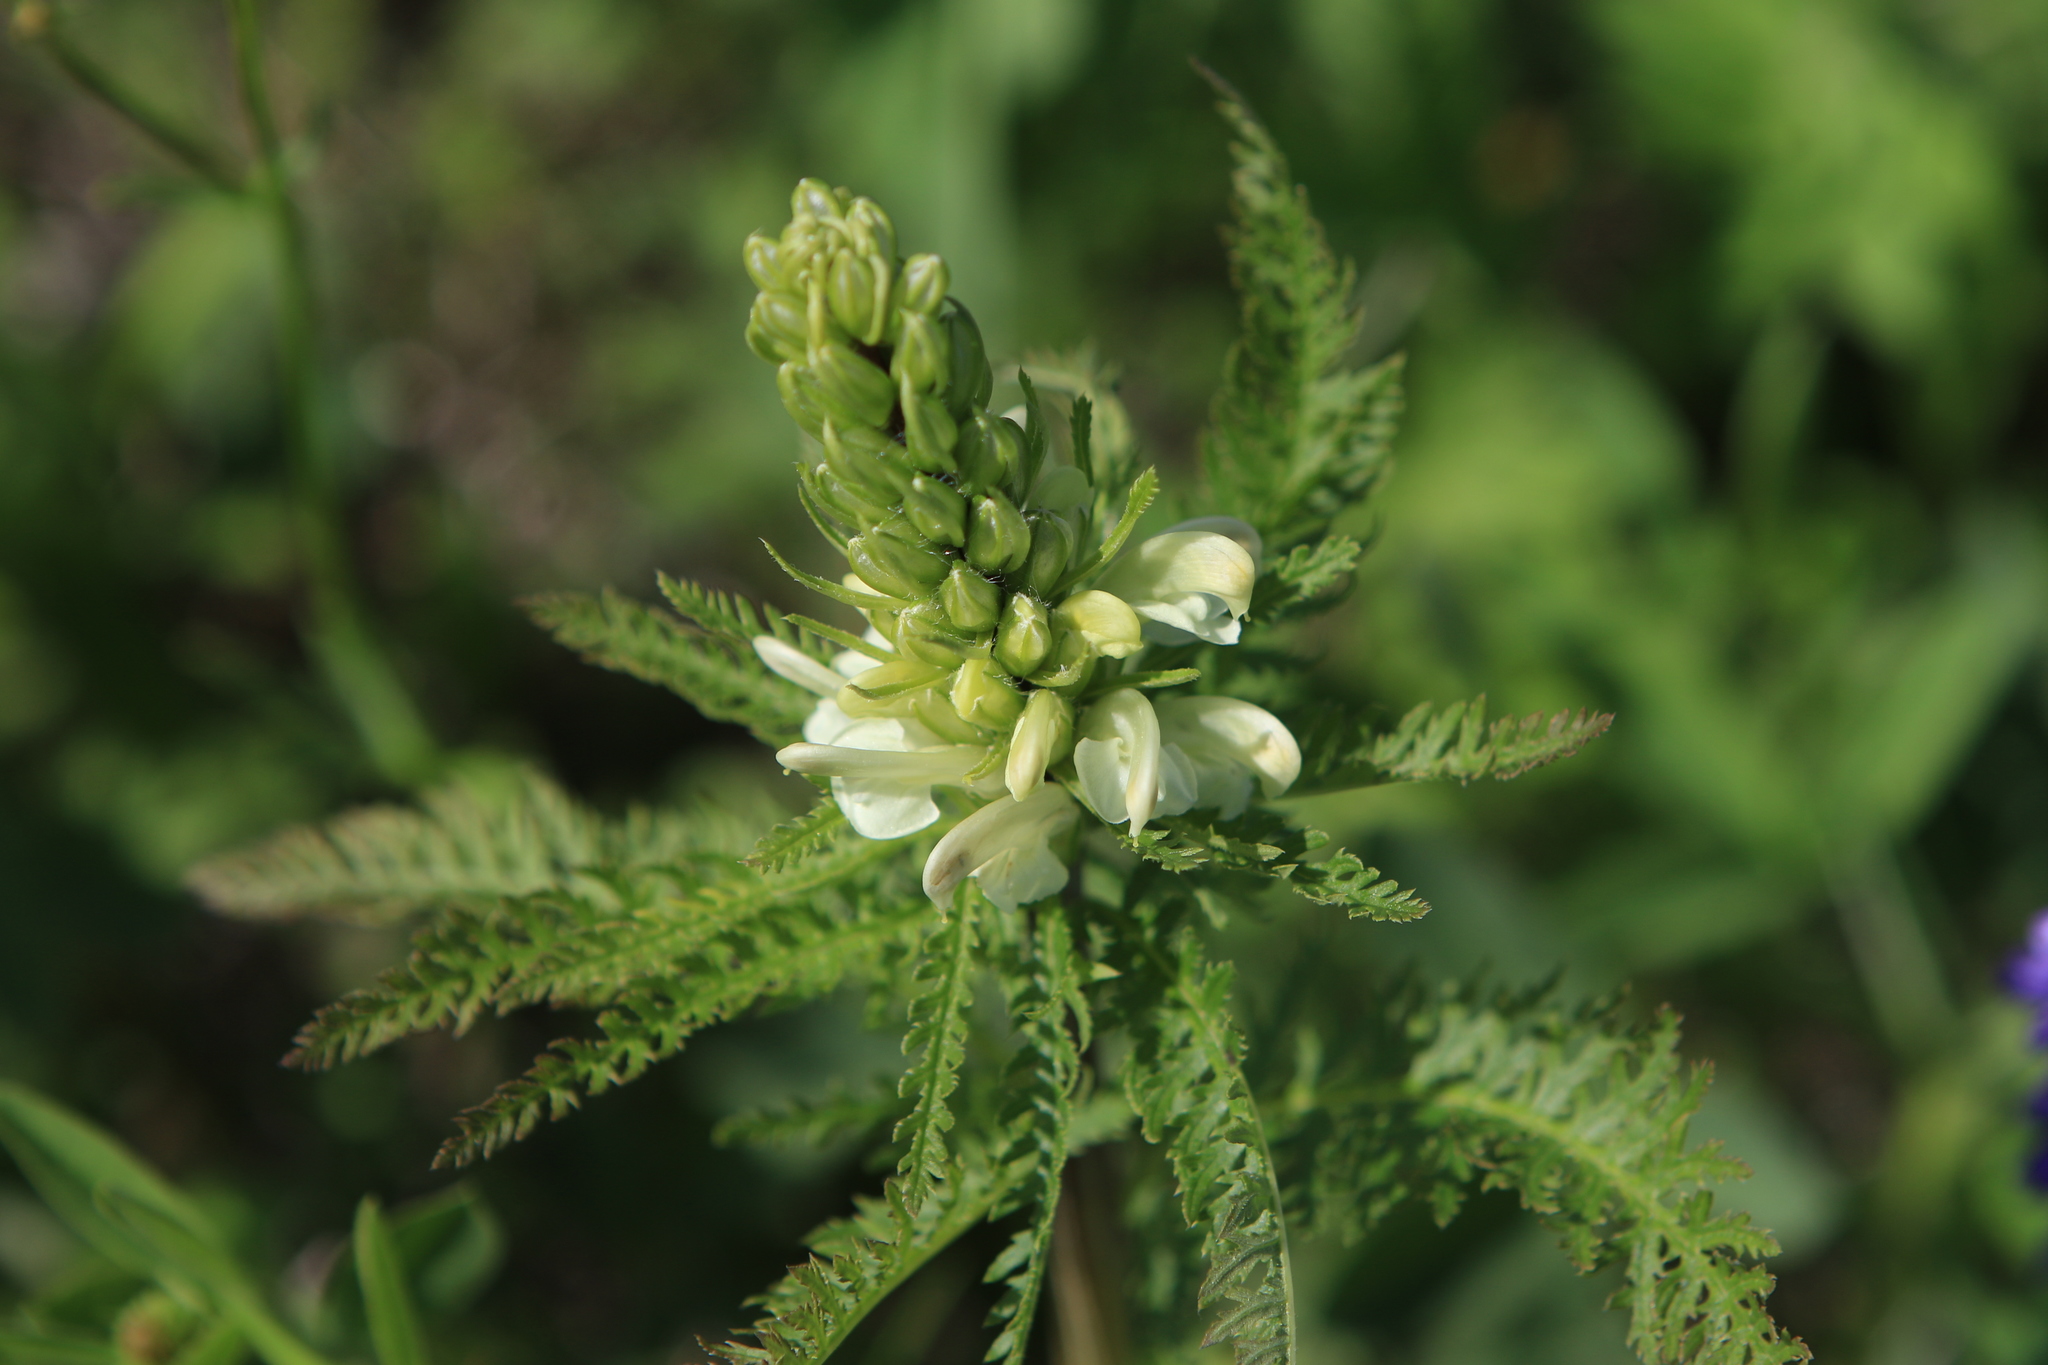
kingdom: Plantae
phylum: Tracheophyta
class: Magnoliopsida
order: Lamiales
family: Orobanchaceae
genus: Pedicularis
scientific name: Pedicularis sibirica
